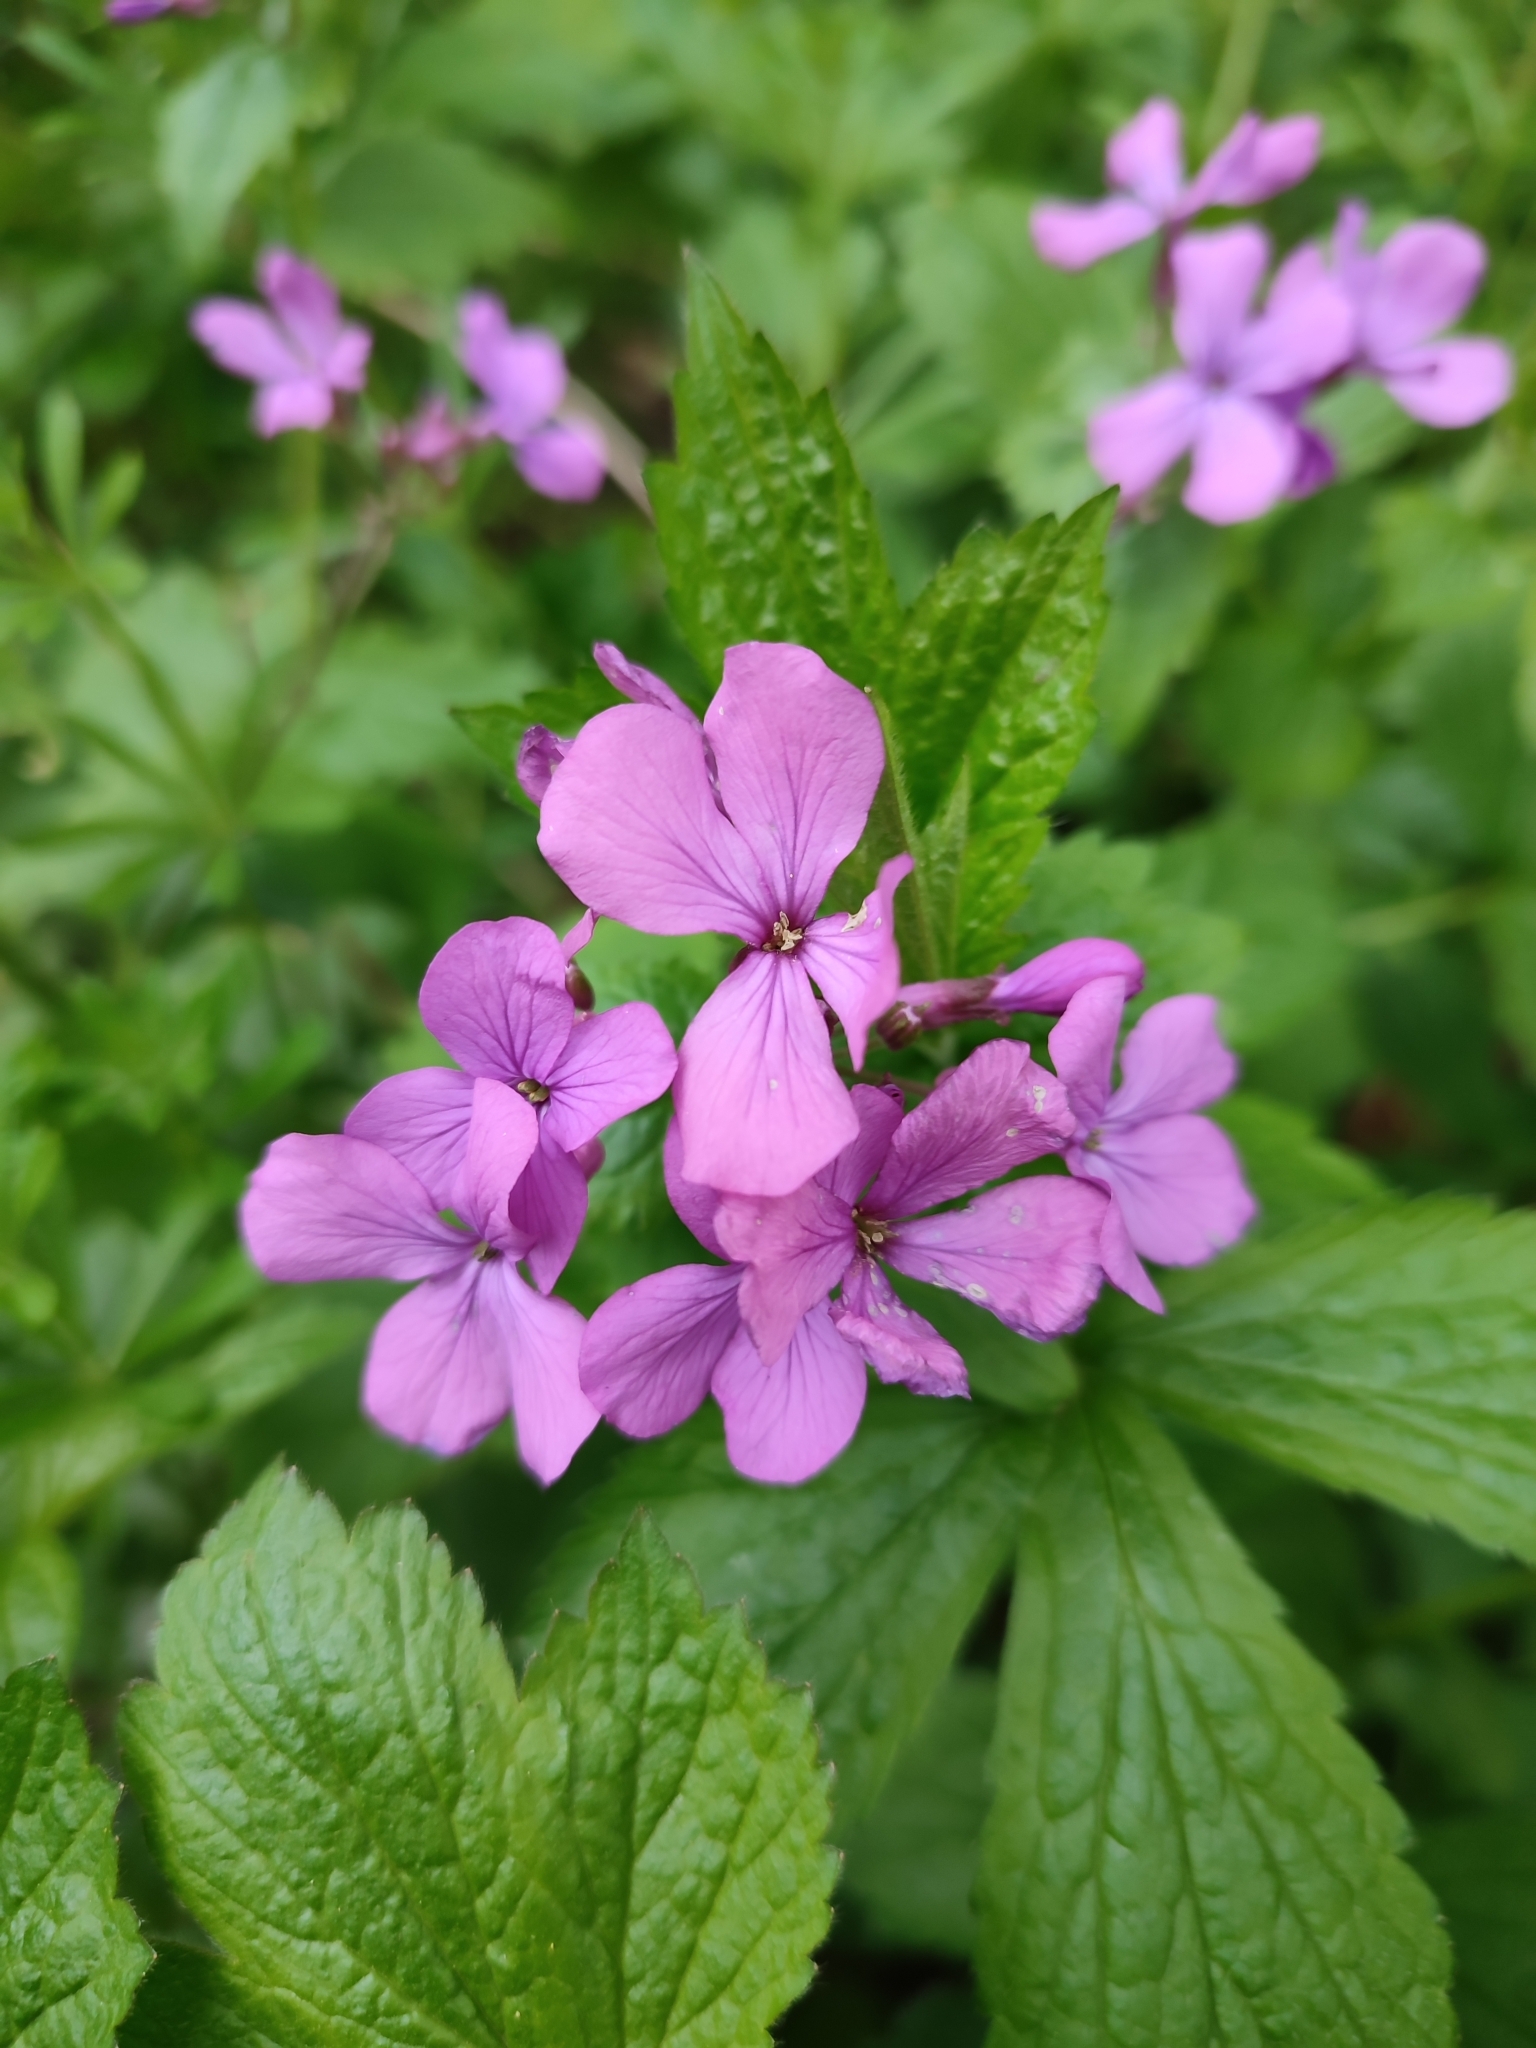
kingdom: Plantae
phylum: Tracheophyta
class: Magnoliopsida
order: Brassicales
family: Brassicaceae
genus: Lunaria
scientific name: Lunaria annua
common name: Honesty
